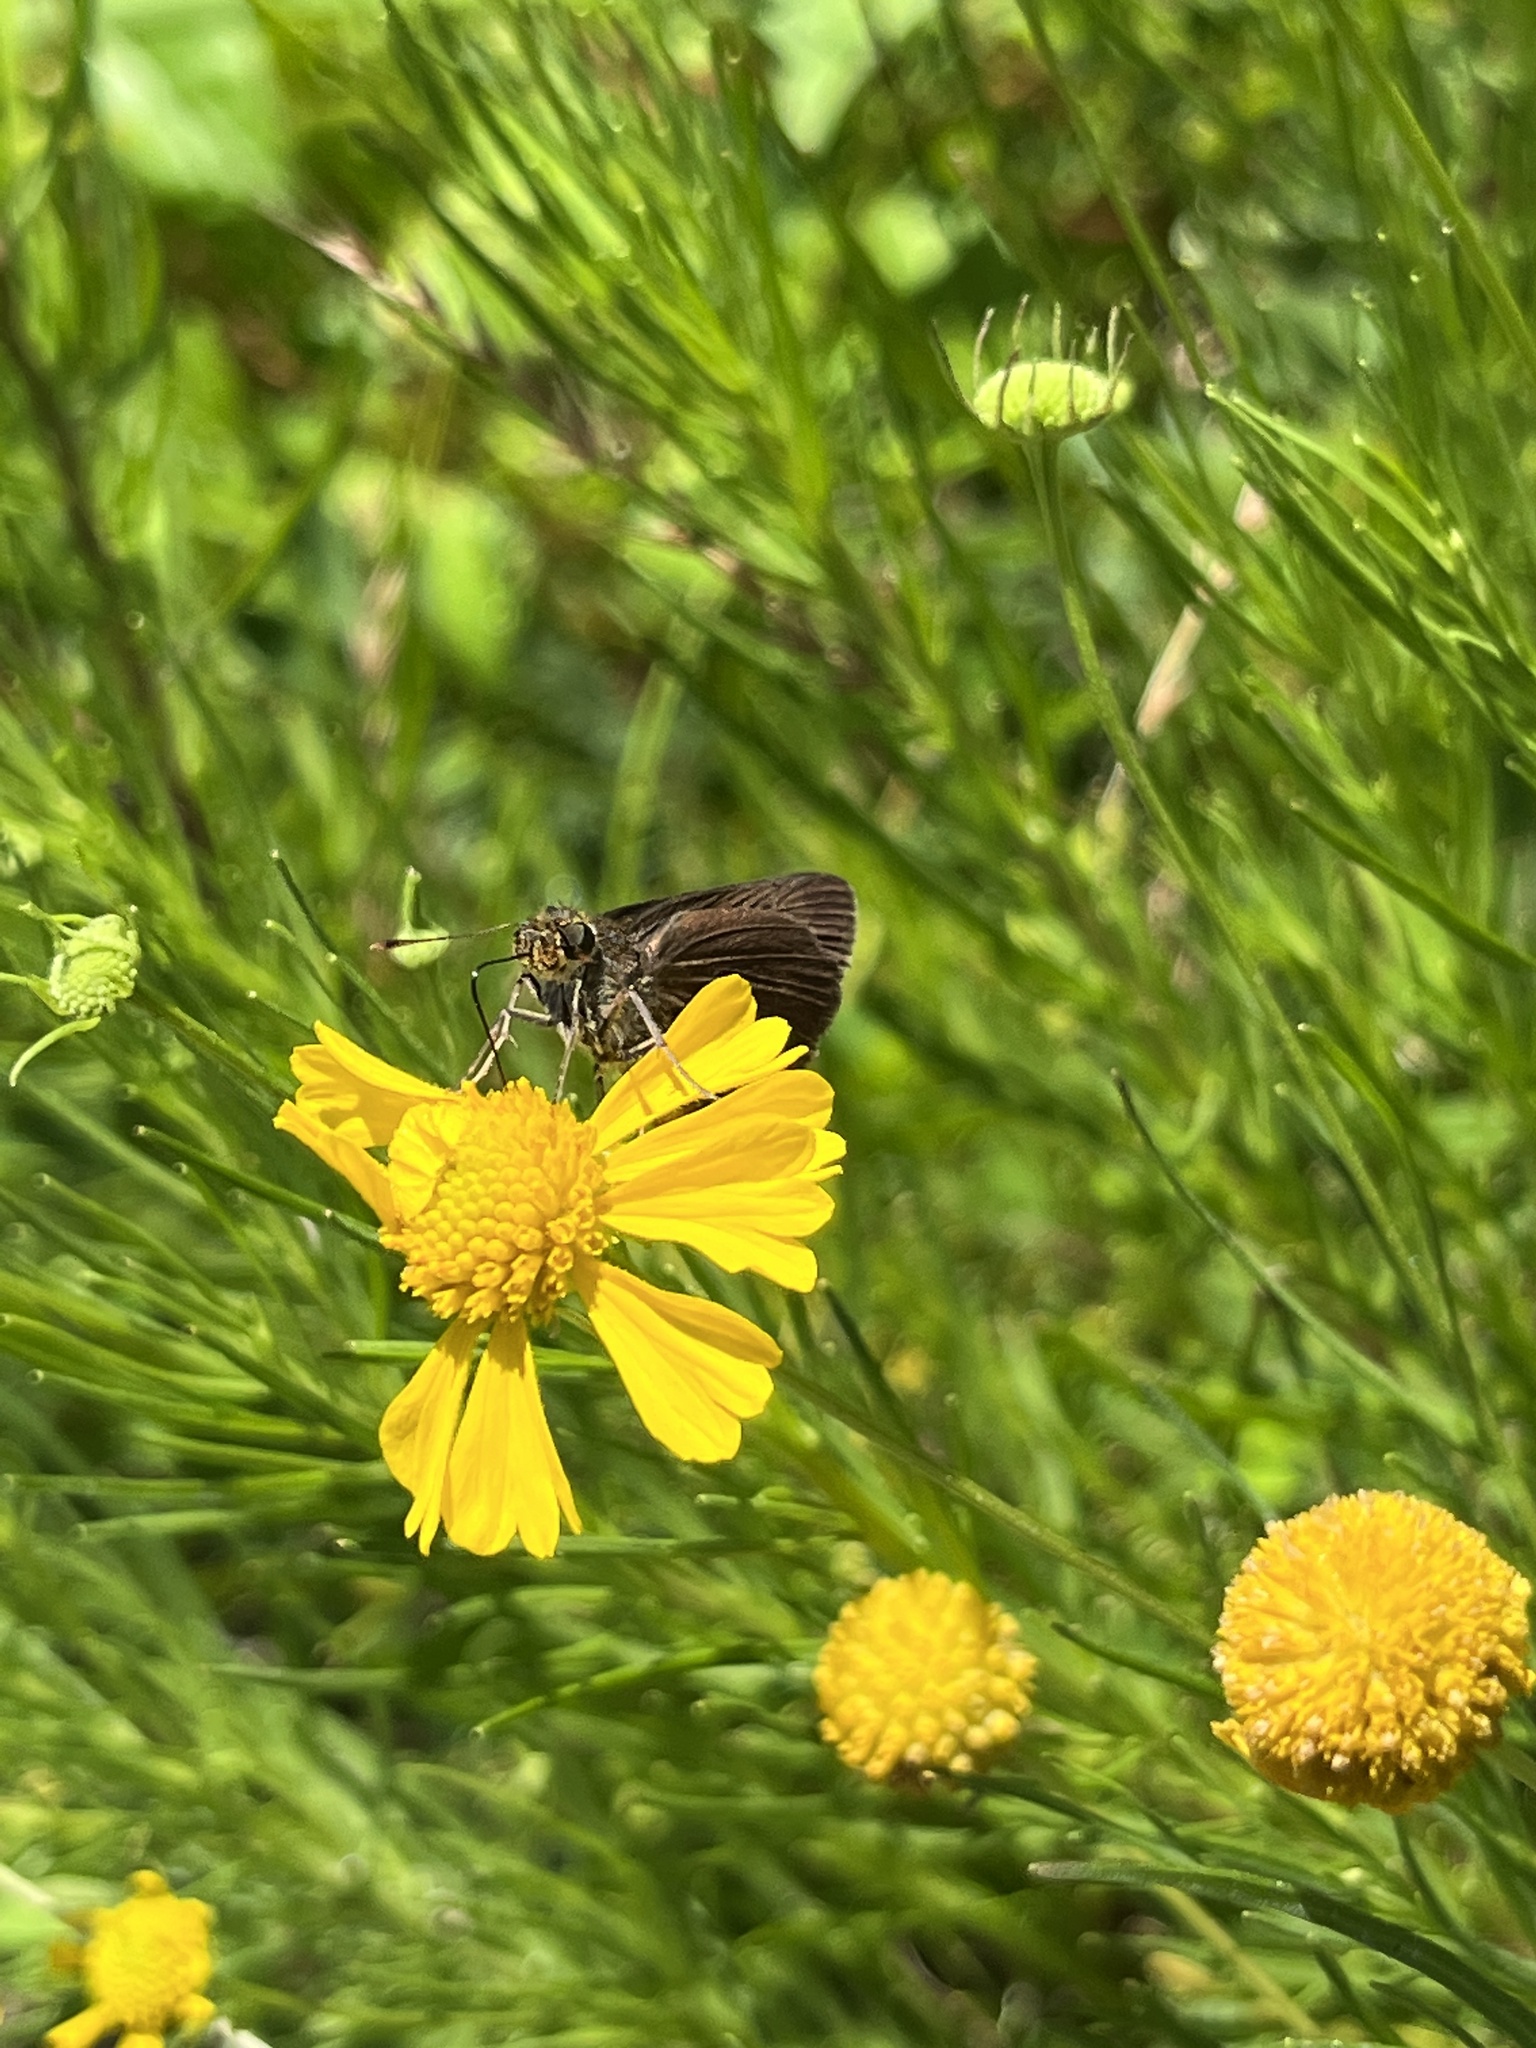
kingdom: Animalia
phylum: Arthropoda
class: Insecta
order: Lepidoptera
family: Hesperiidae
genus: Euphyes
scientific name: Euphyes vestris
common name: Dun skipper
